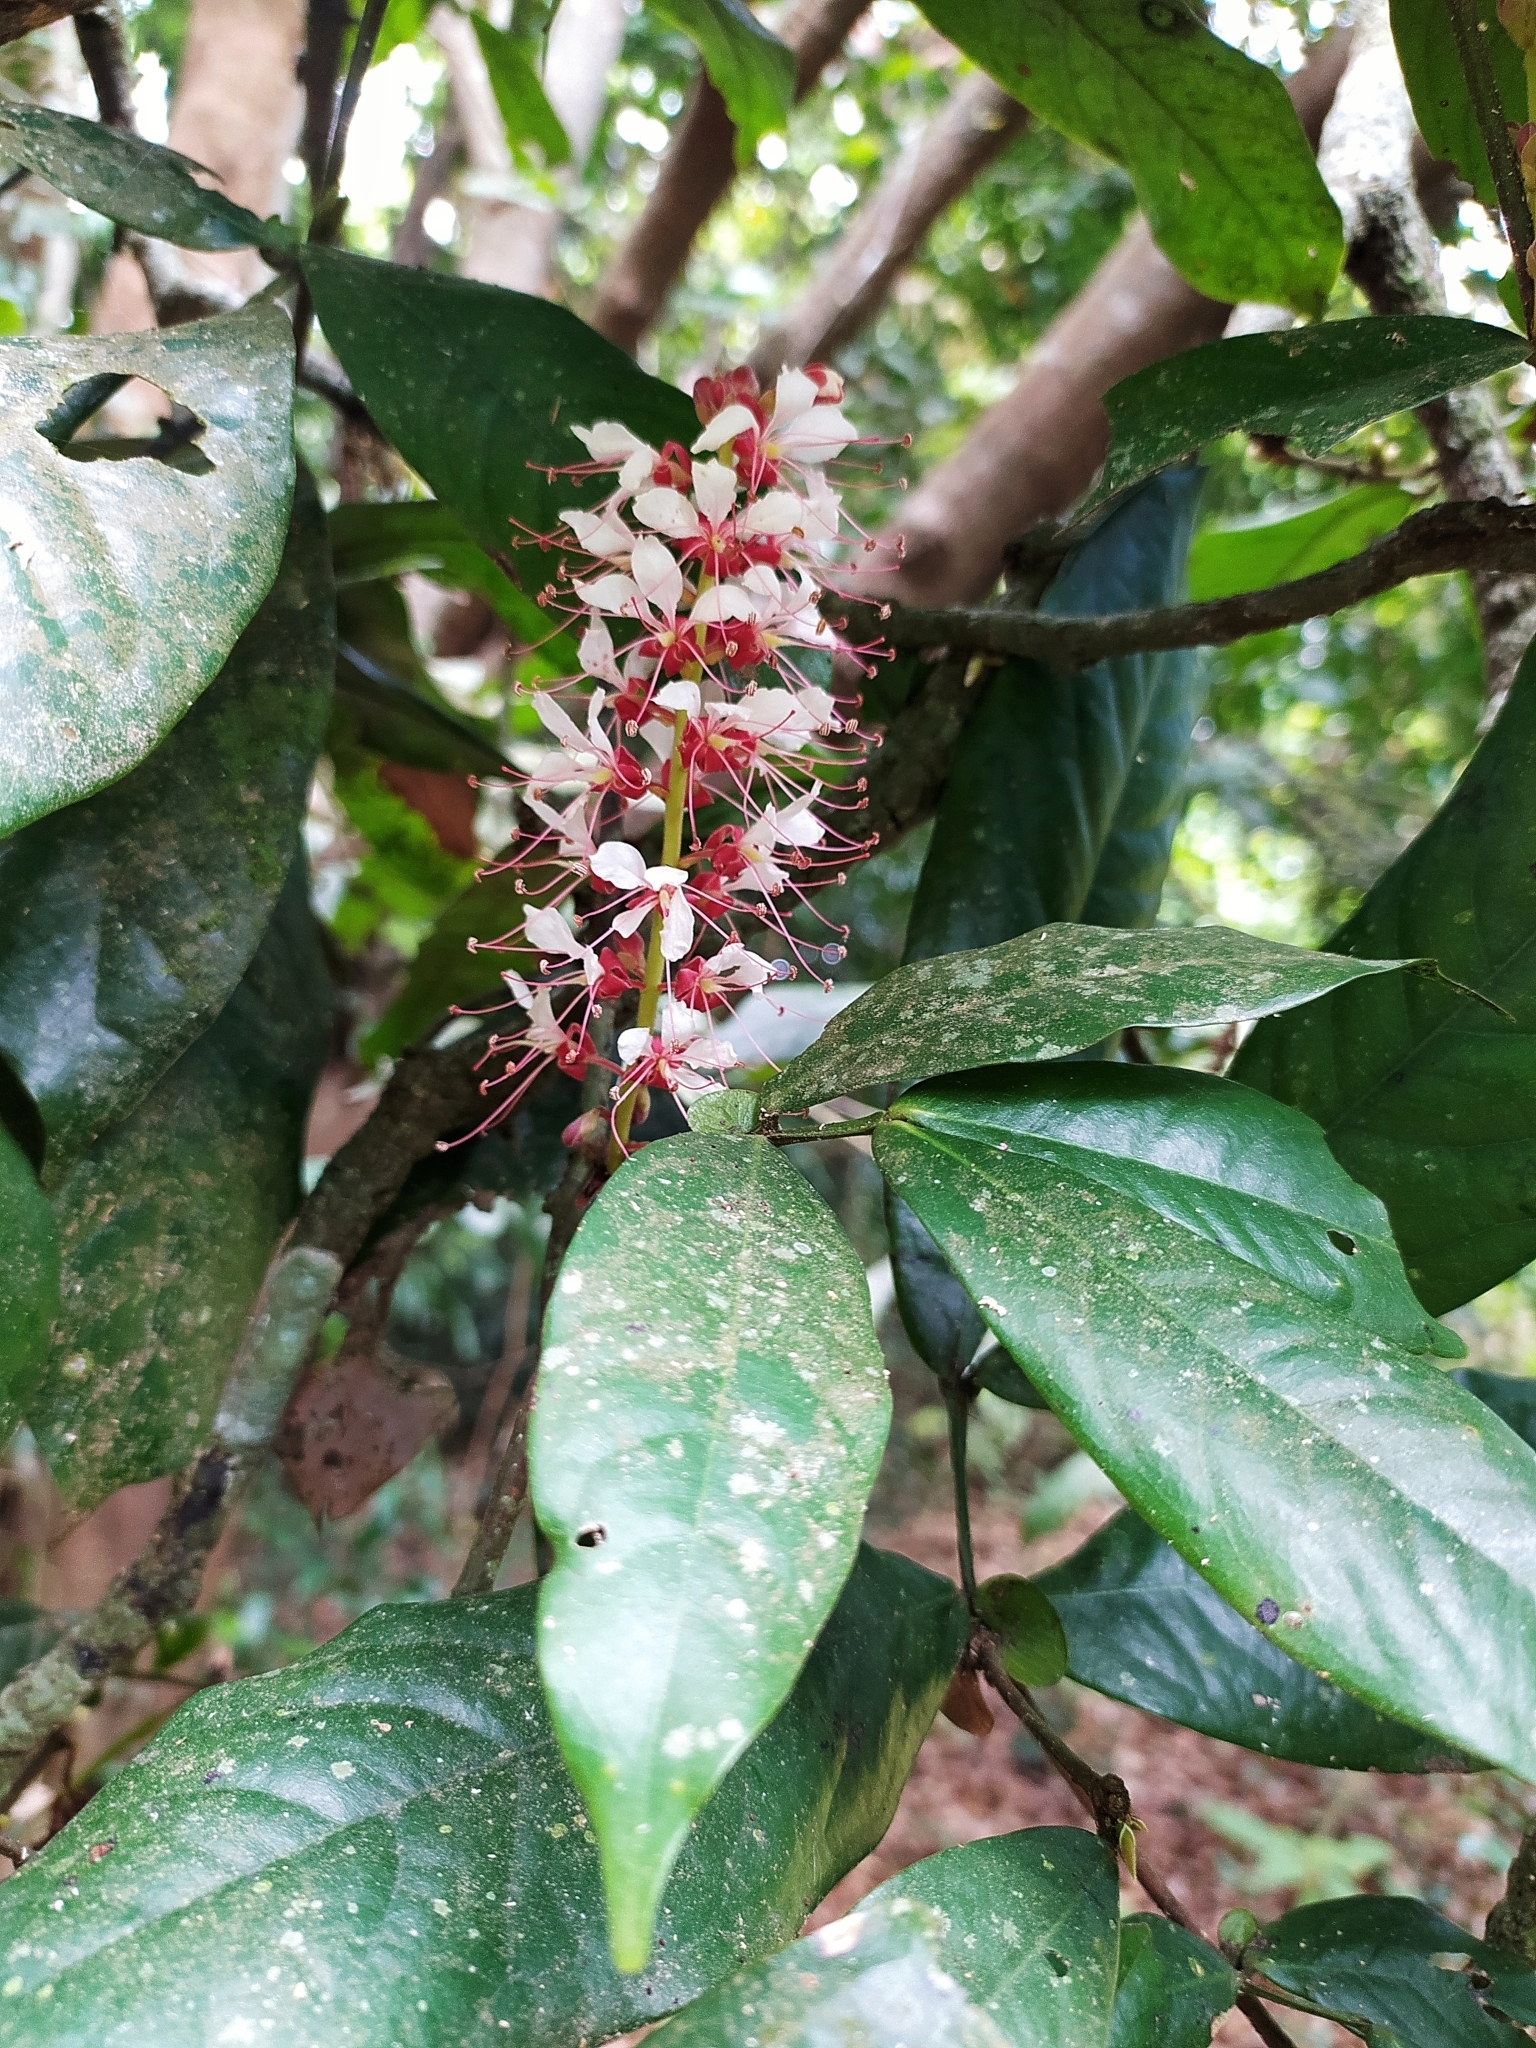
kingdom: Plantae
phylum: Tracheophyta
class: Magnoliopsida
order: Fabales
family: Fabaceae
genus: Humboldtia
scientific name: Humboldtia brunonis
